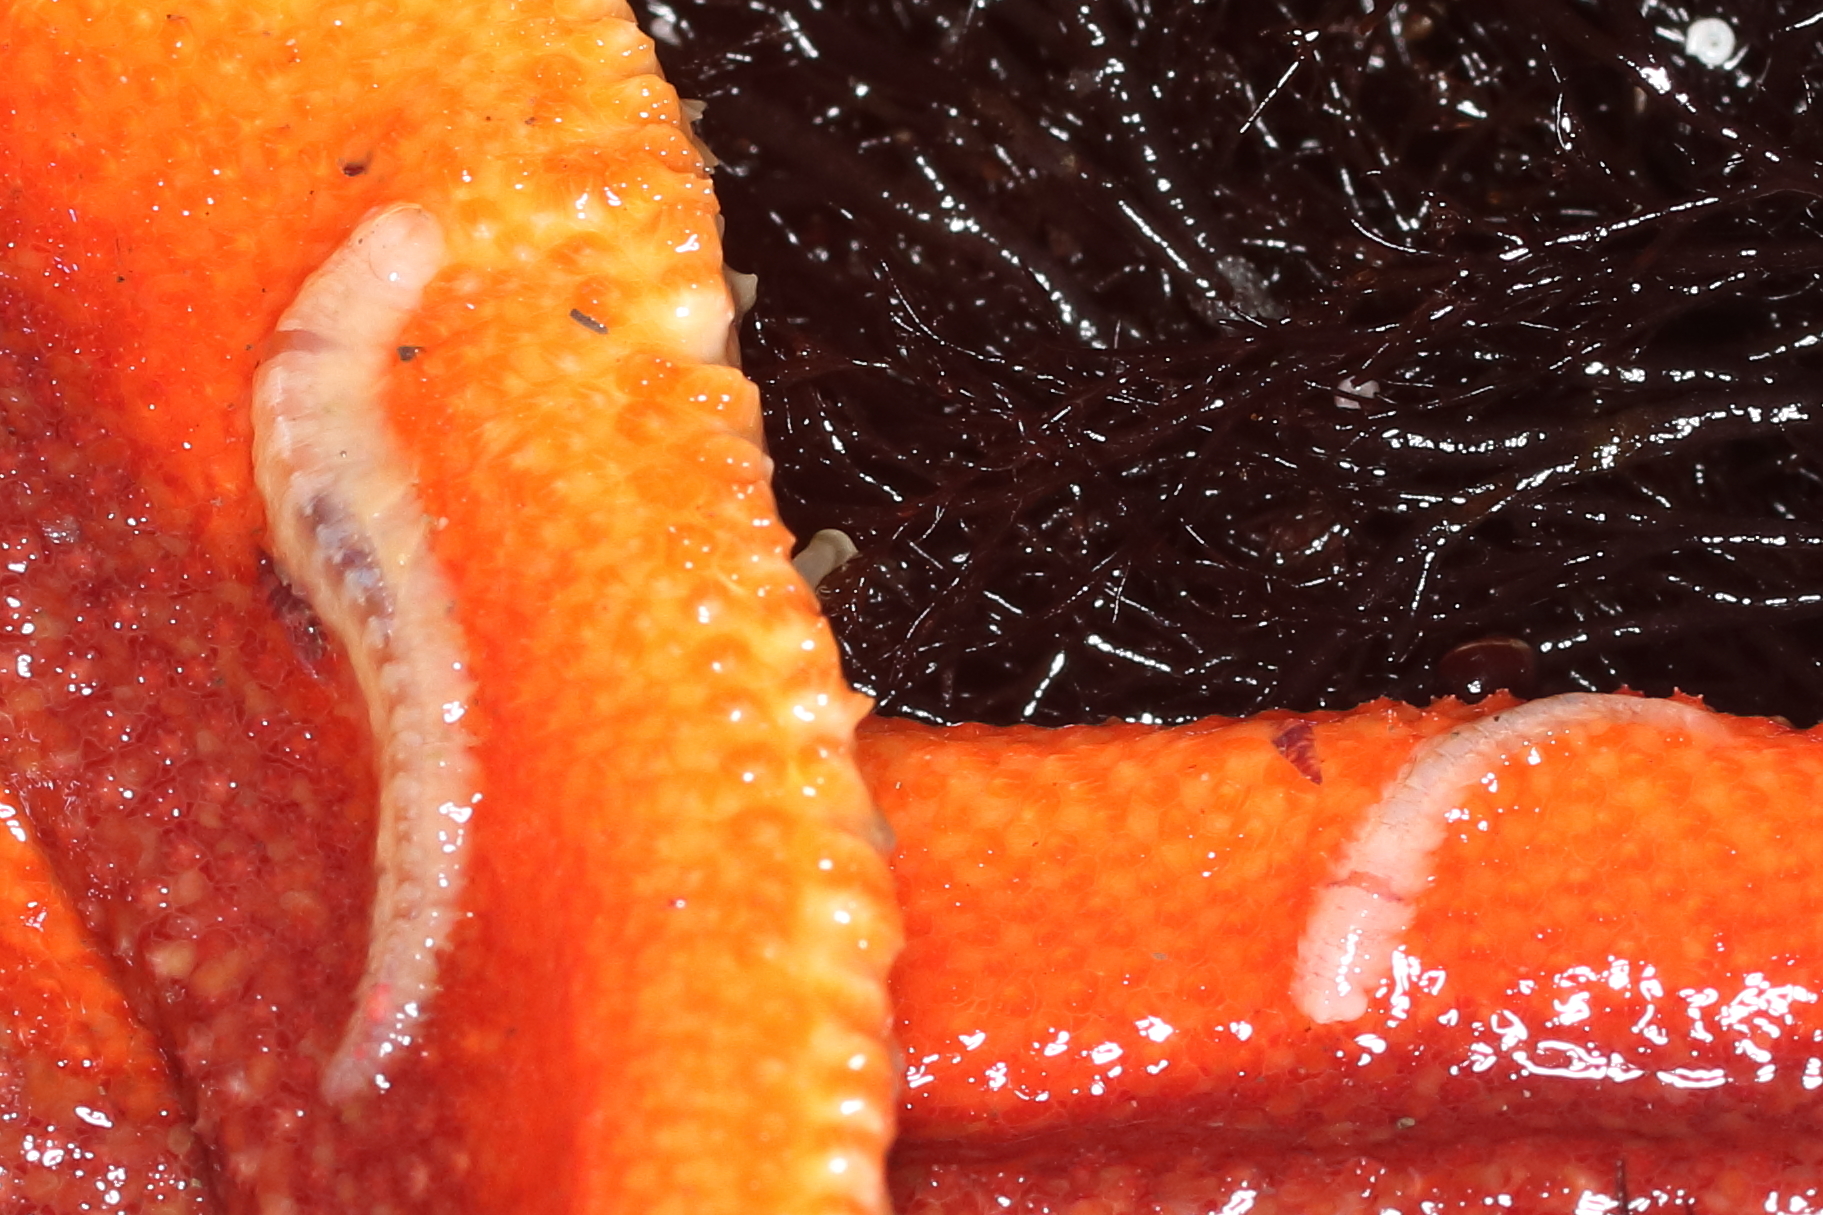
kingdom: Animalia
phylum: Annelida
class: Polychaeta
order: Phyllodocida
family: Polynoidae
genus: Arctonoe
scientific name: Arctonoe vittata
